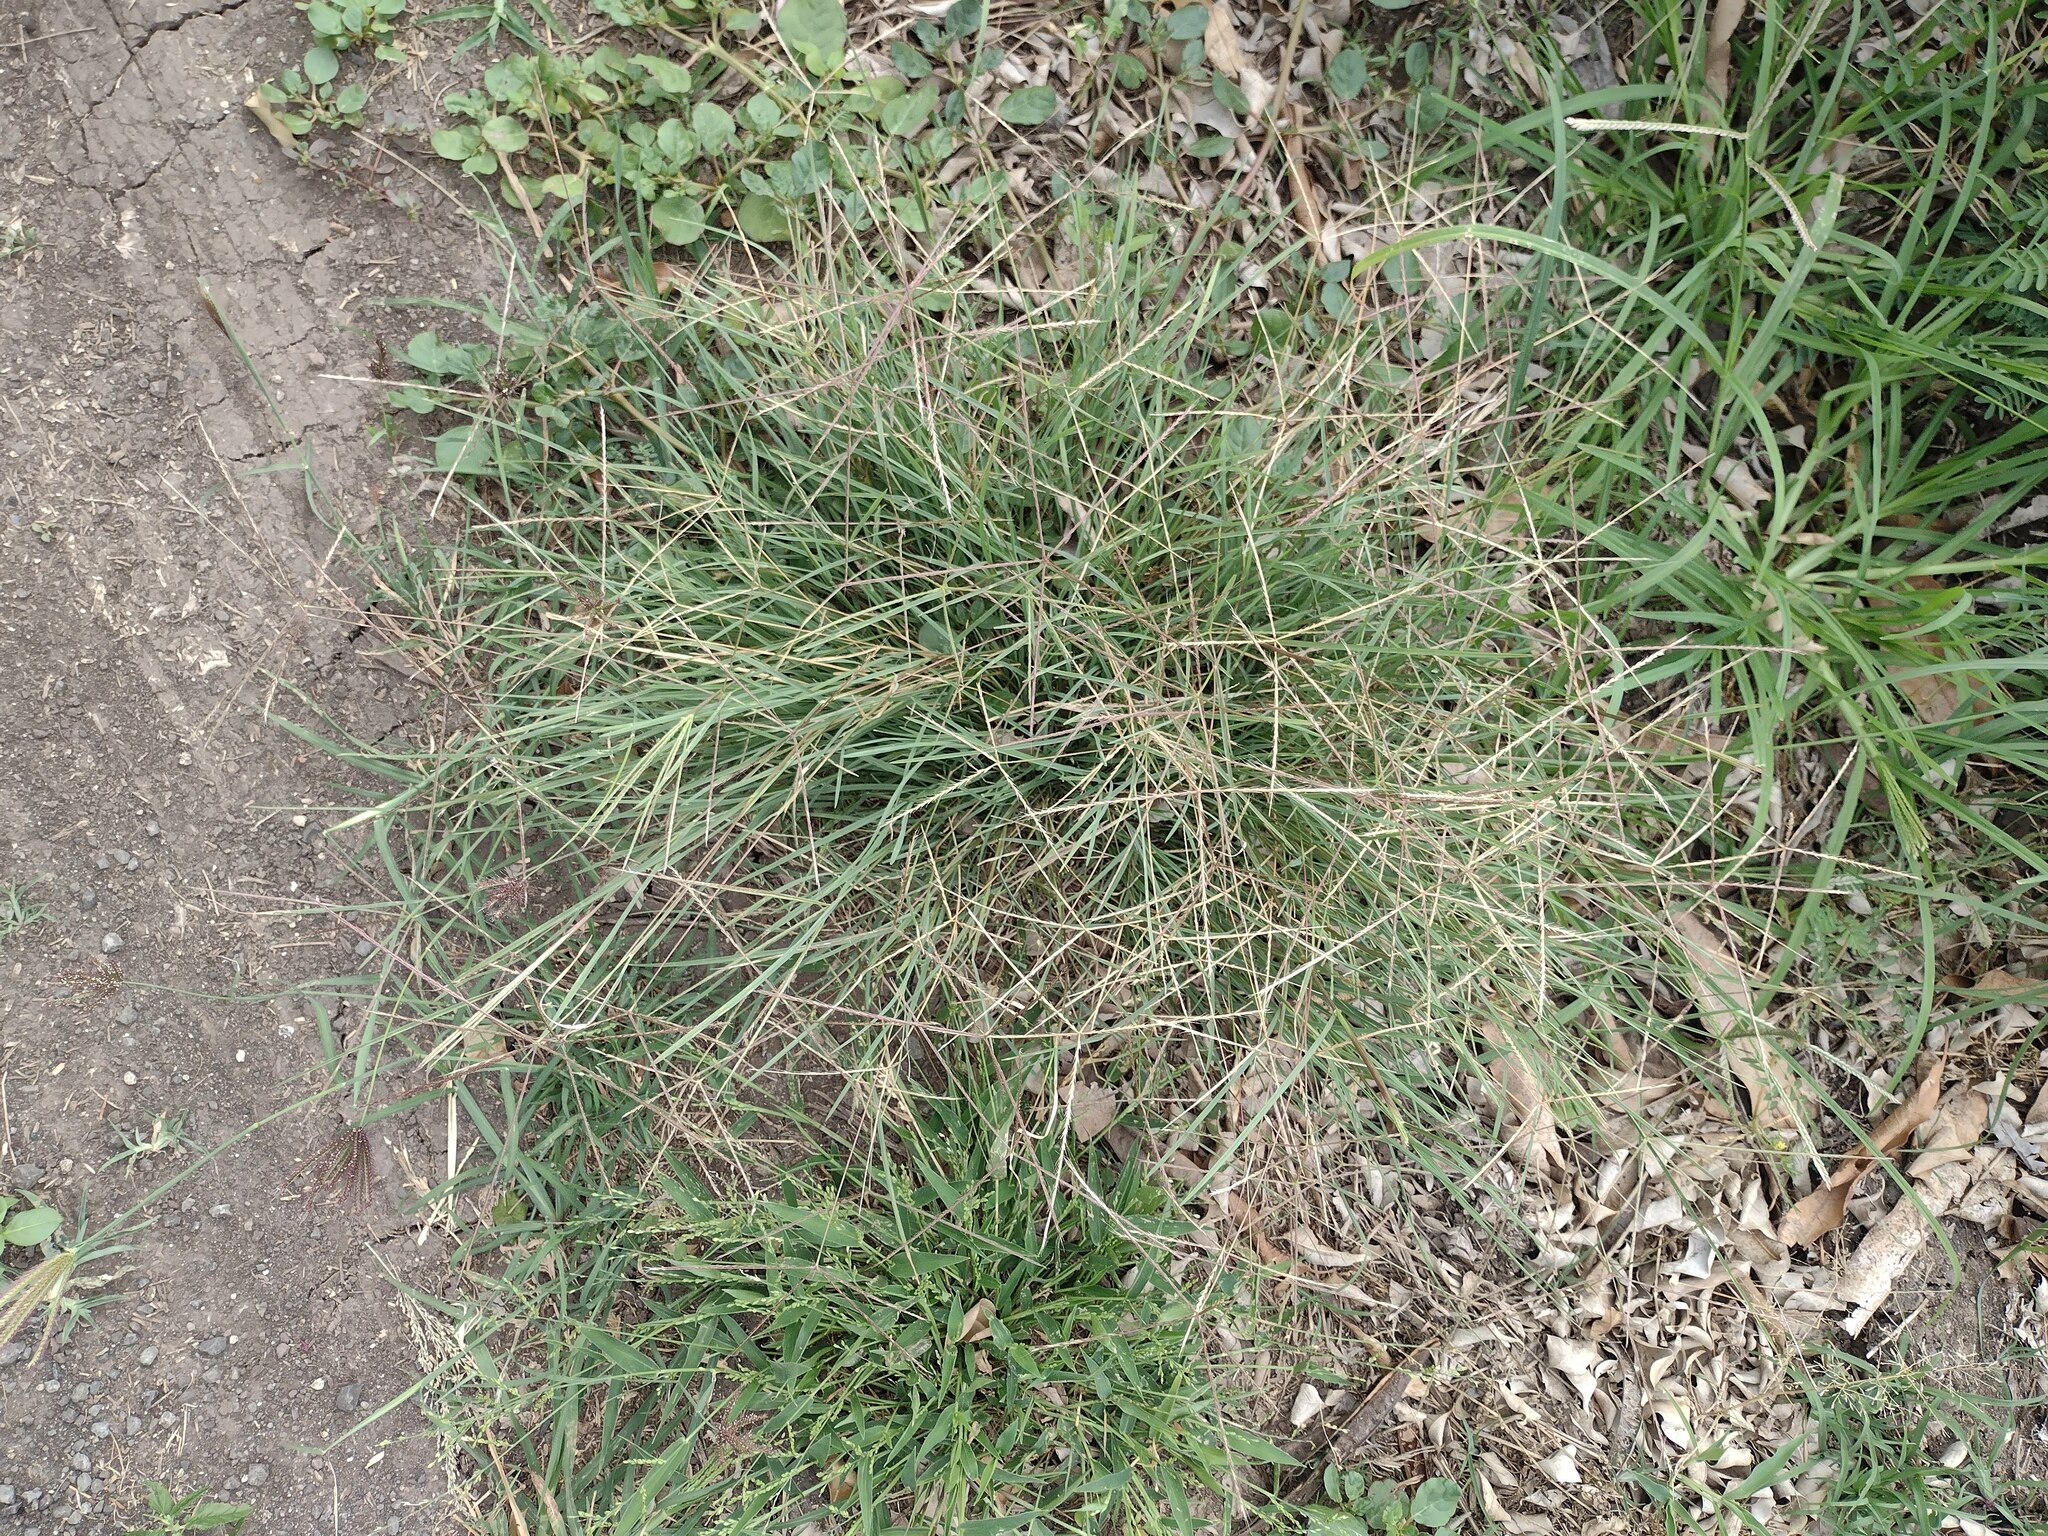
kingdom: Plantae
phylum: Tracheophyta
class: Liliopsida
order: Poales
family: Poaceae
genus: Chloris
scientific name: Chloris divaricata
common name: Spreading windmill grass
